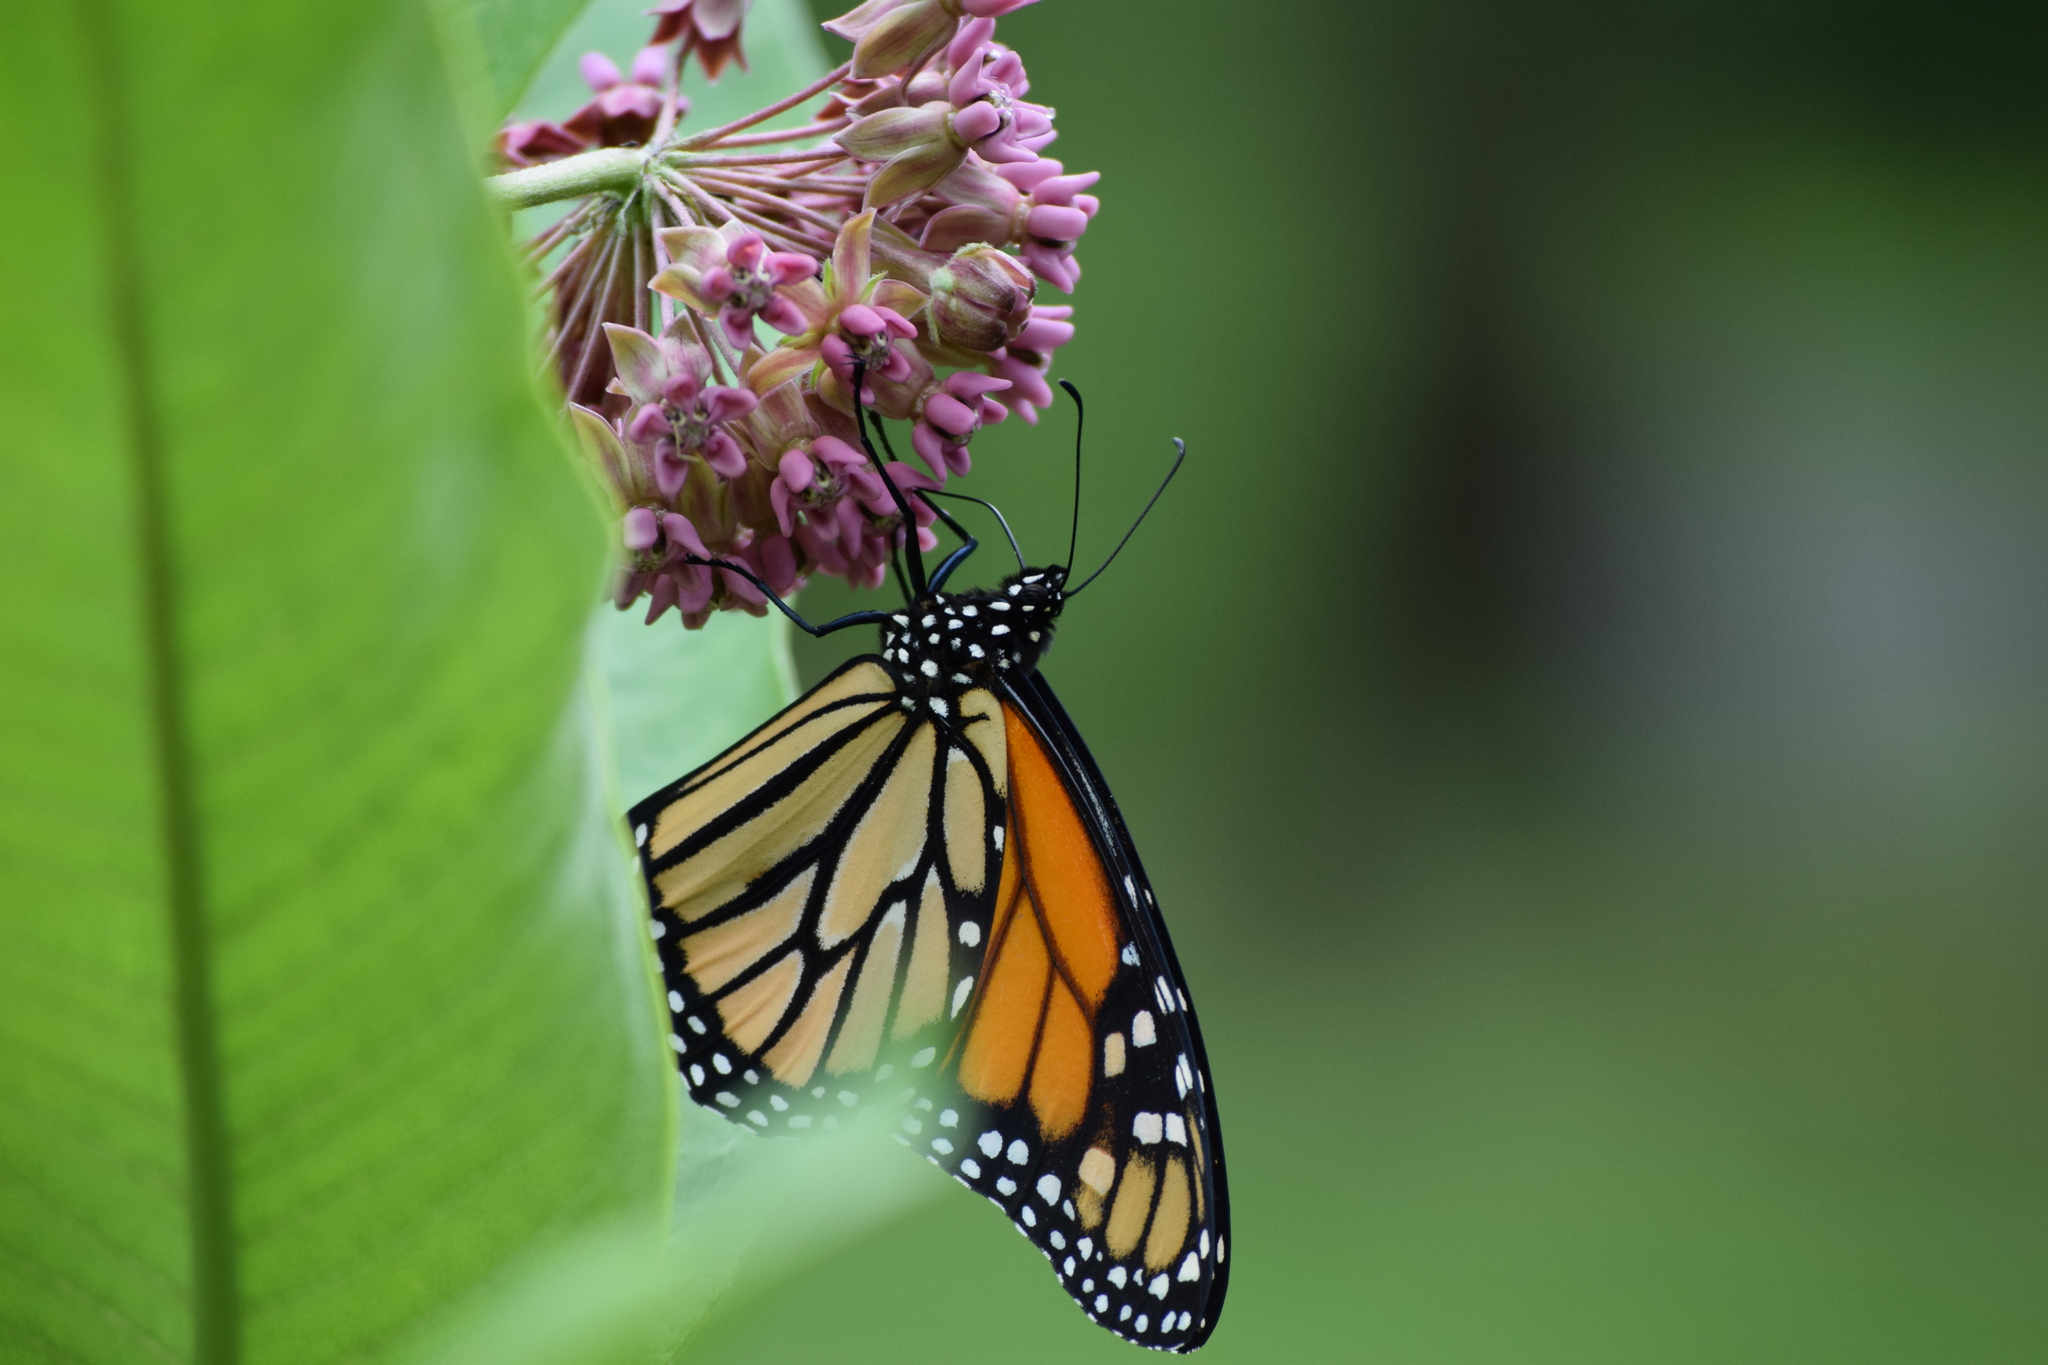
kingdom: Animalia
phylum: Arthropoda
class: Insecta
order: Lepidoptera
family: Nymphalidae
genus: Danaus
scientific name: Danaus plexippus
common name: Monarch
